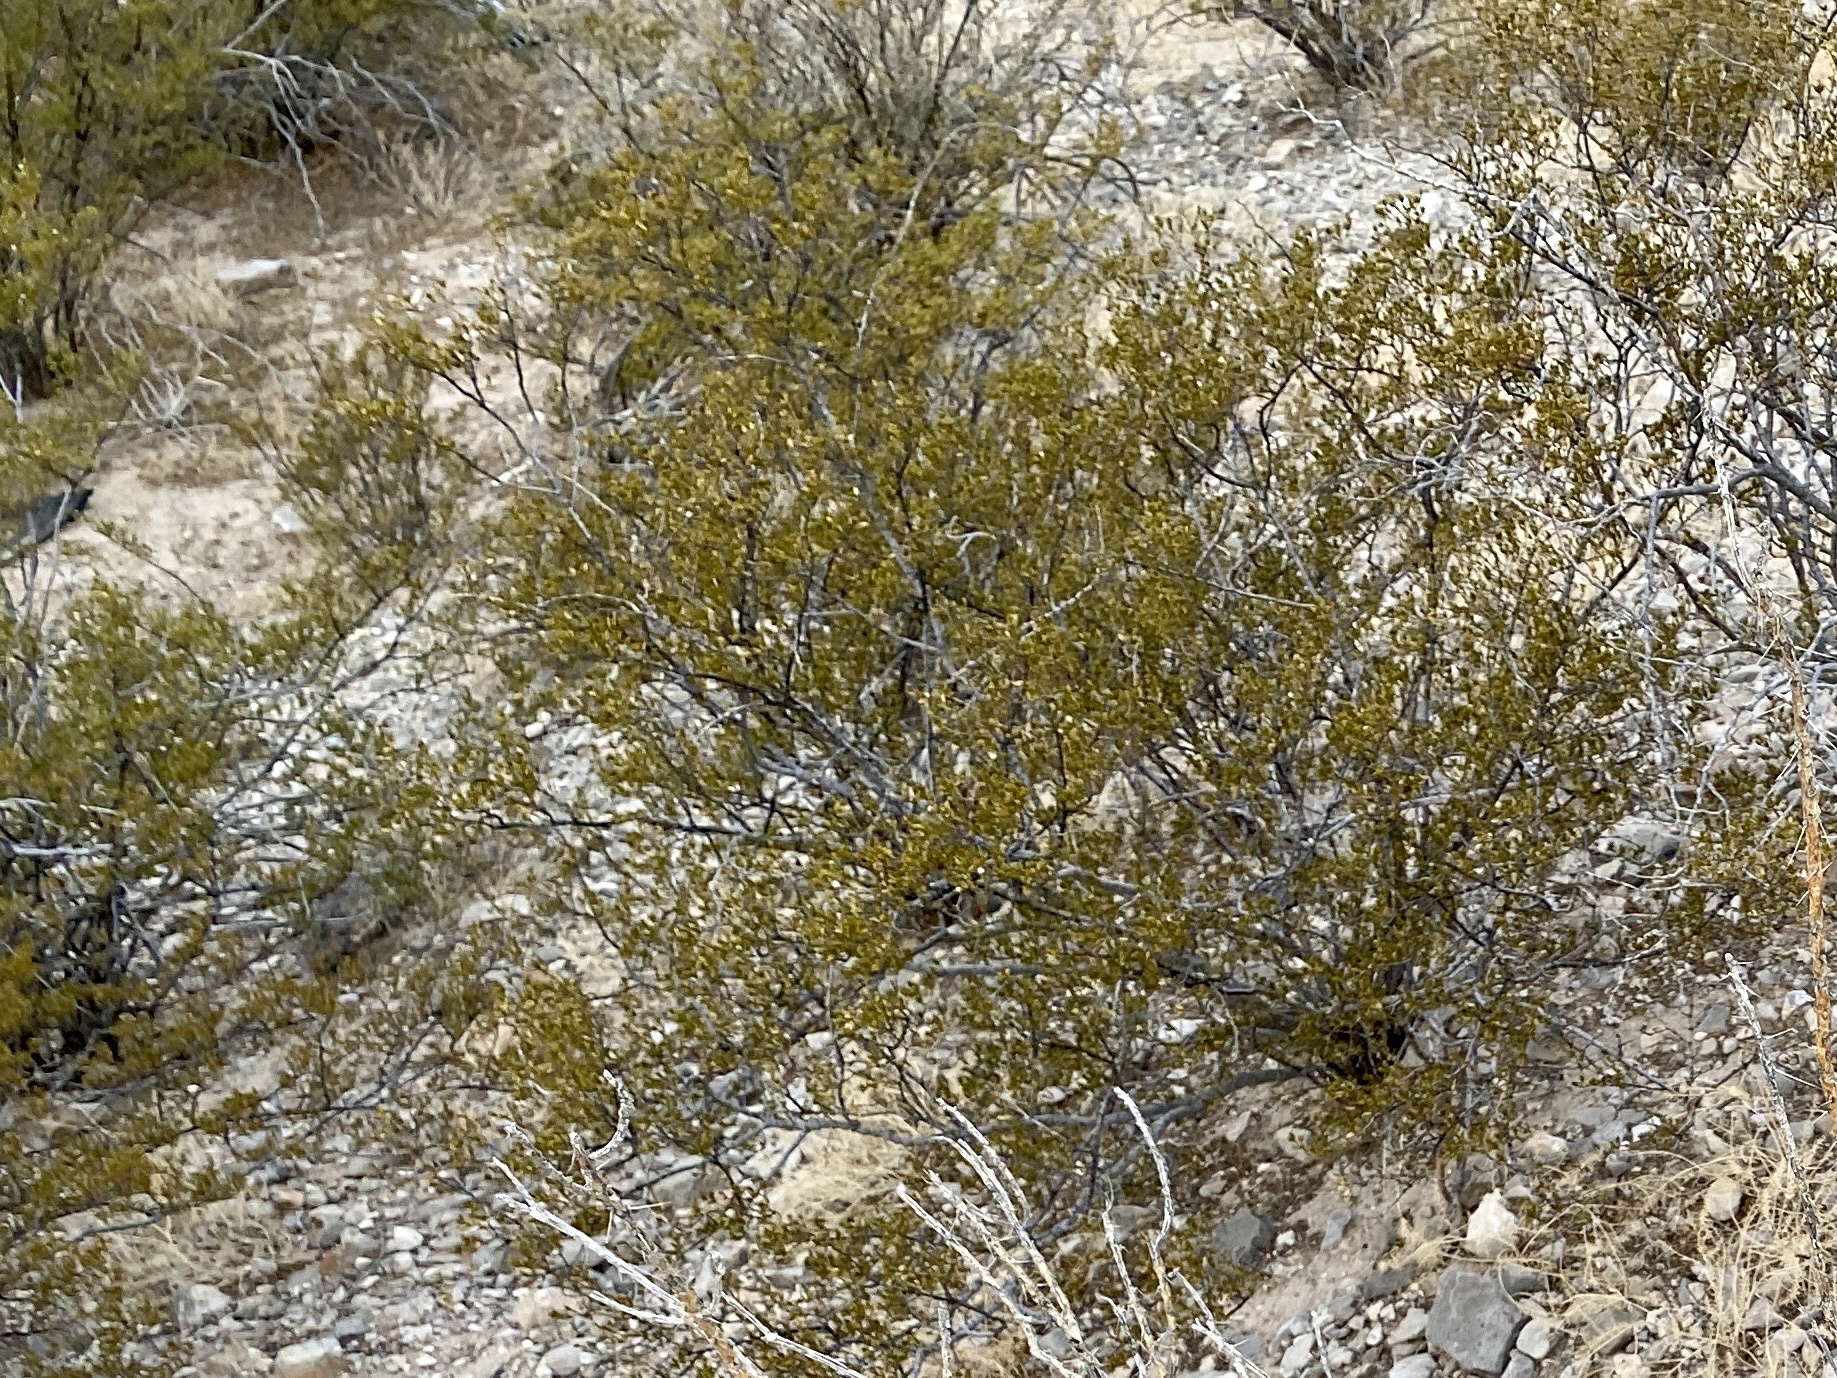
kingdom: Plantae
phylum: Tracheophyta
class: Magnoliopsida
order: Zygophyllales
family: Zygophyllaceae
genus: Larrea
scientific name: Larrea tridentata
